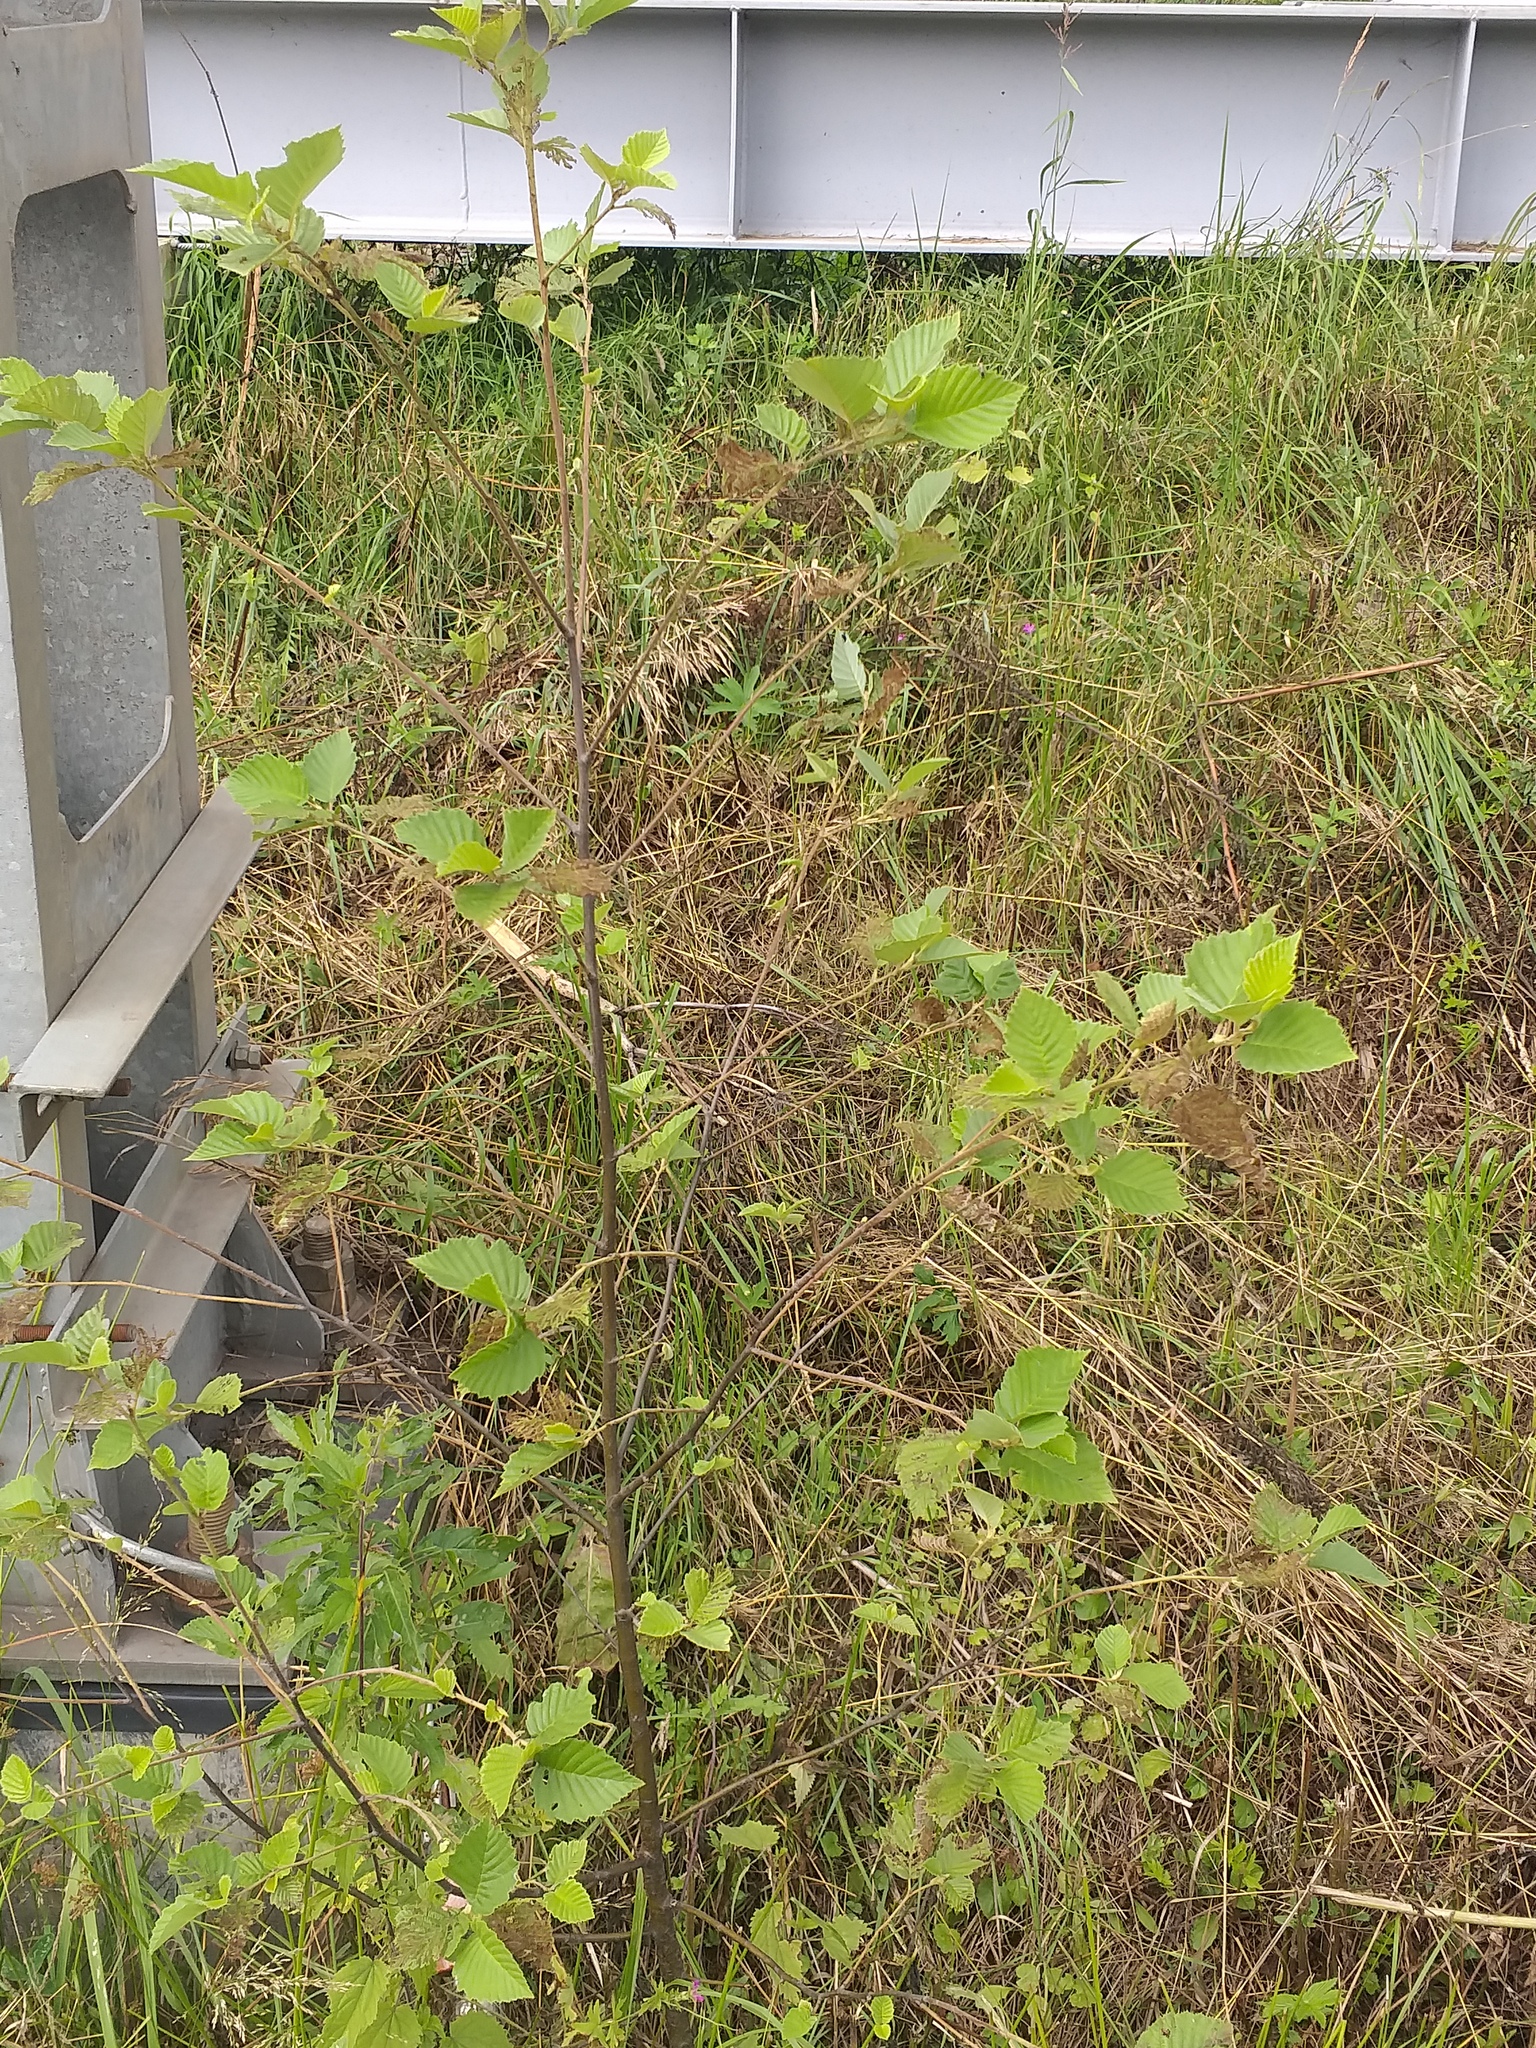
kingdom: Plantae
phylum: Tracheophyta
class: Magnoliopsida
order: Fagales
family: Betulaceae
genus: Alnus
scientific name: Alnus incana
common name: Grey alder
